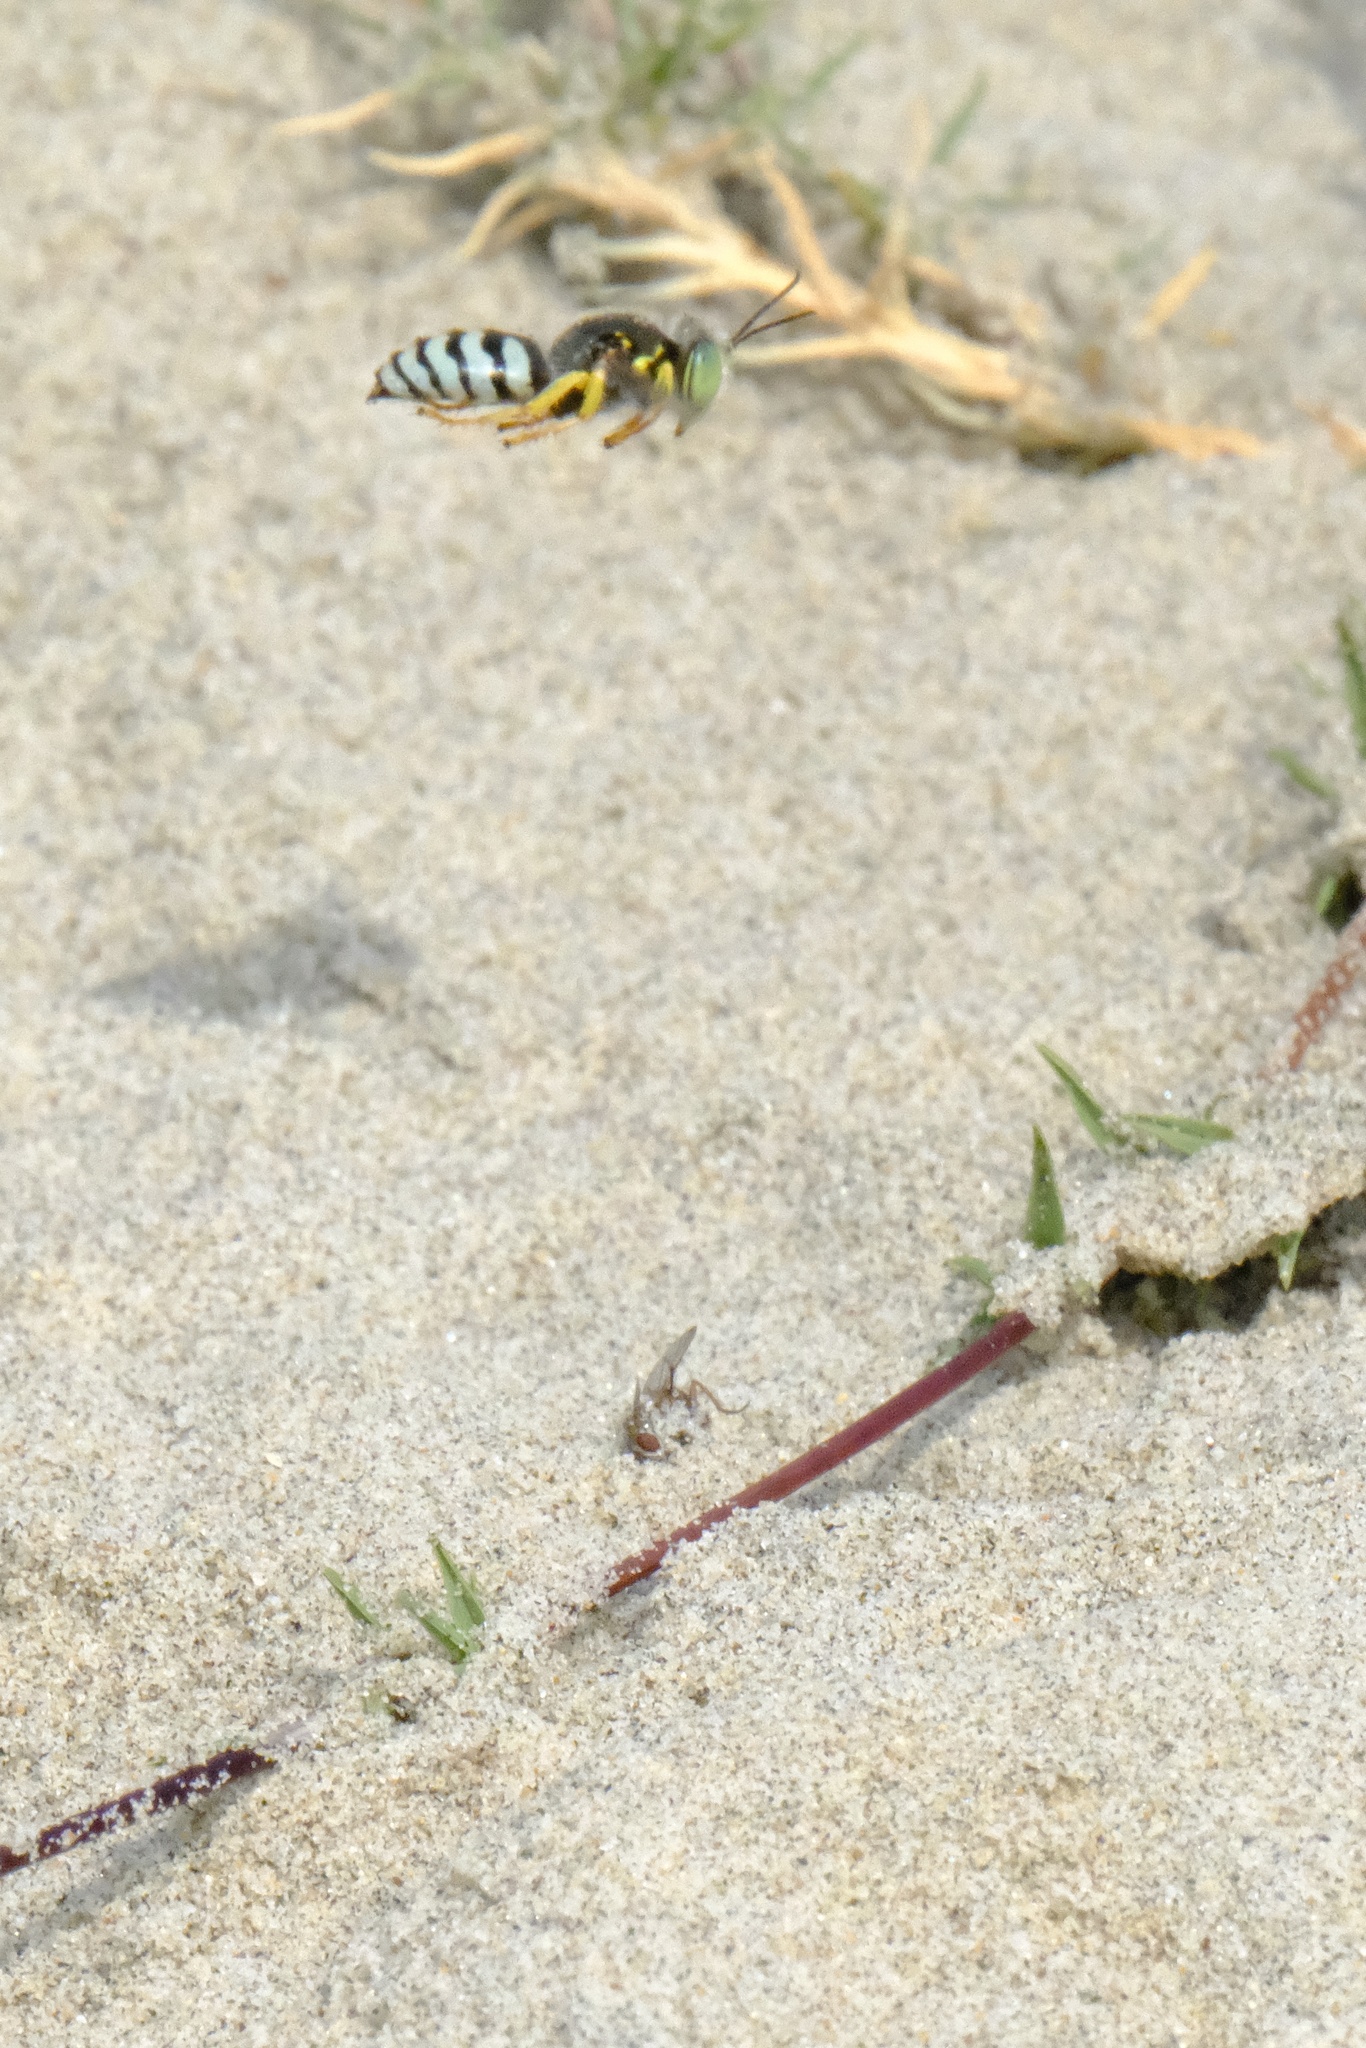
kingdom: Animalia
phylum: Arthropoda
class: Insecta
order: Hymenoptera
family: Crabronidae
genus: Bembix
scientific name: Bembix americana
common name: American sand wasp
